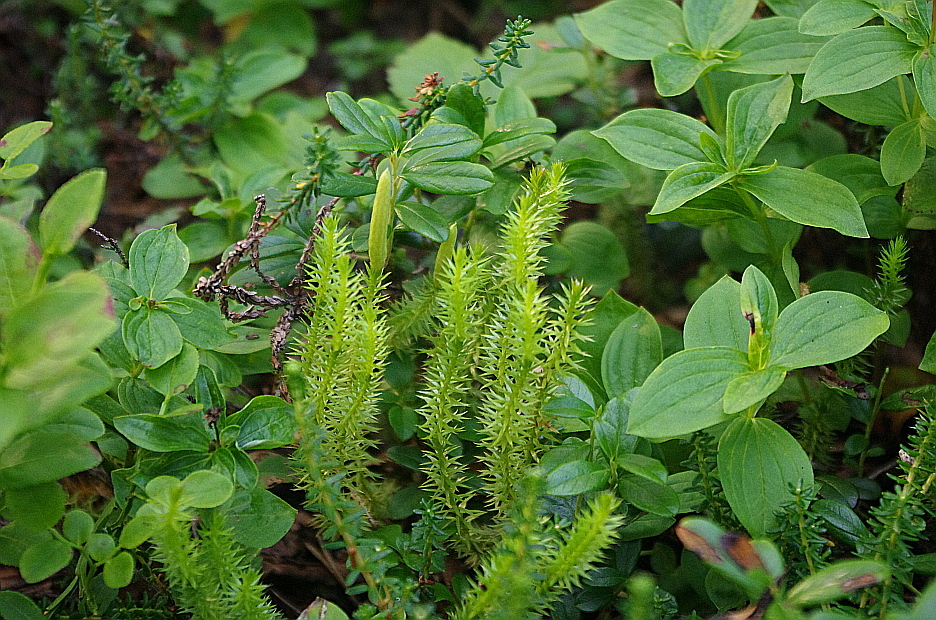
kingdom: Plantae
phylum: Tracheophyta
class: Lycopodiopsida
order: Lycopodiales
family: Lycopodiaceae
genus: Spinulum
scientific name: Spinulum annotinum
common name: Interrupted club-moss
